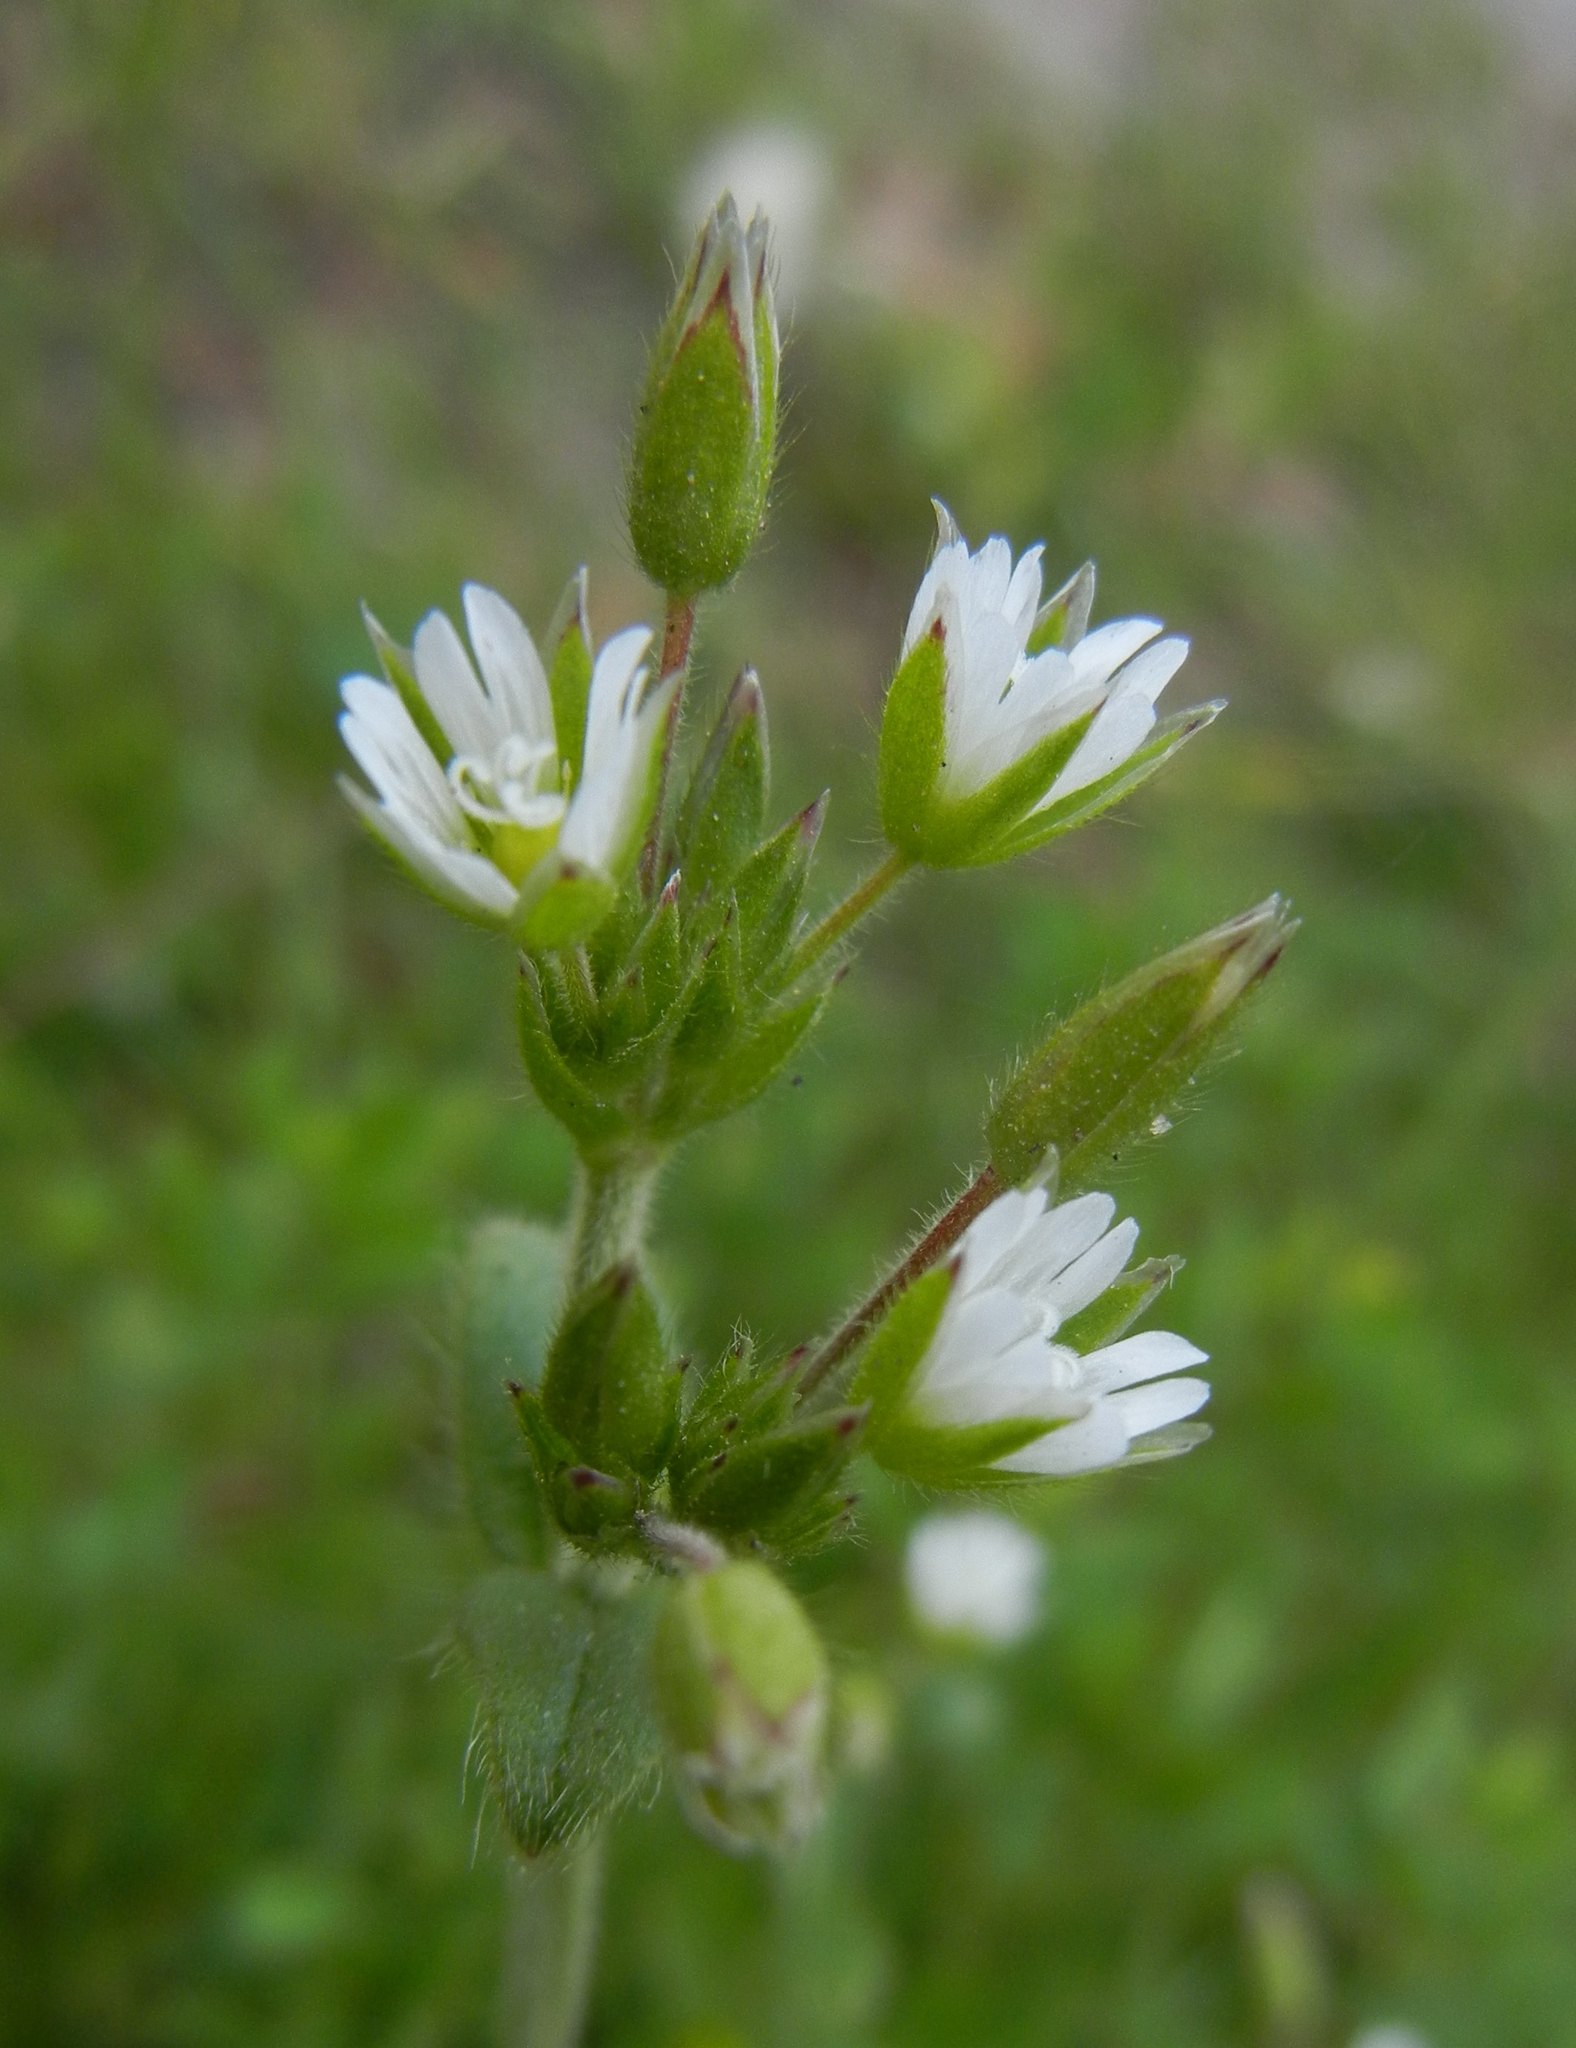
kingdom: Plantae
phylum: Tracheophyta
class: Magnoliopsida
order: Caryophyllales
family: Caryophyllaceae
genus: Cerastium
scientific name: Cerastium fontanum
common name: Common mouse-ear
